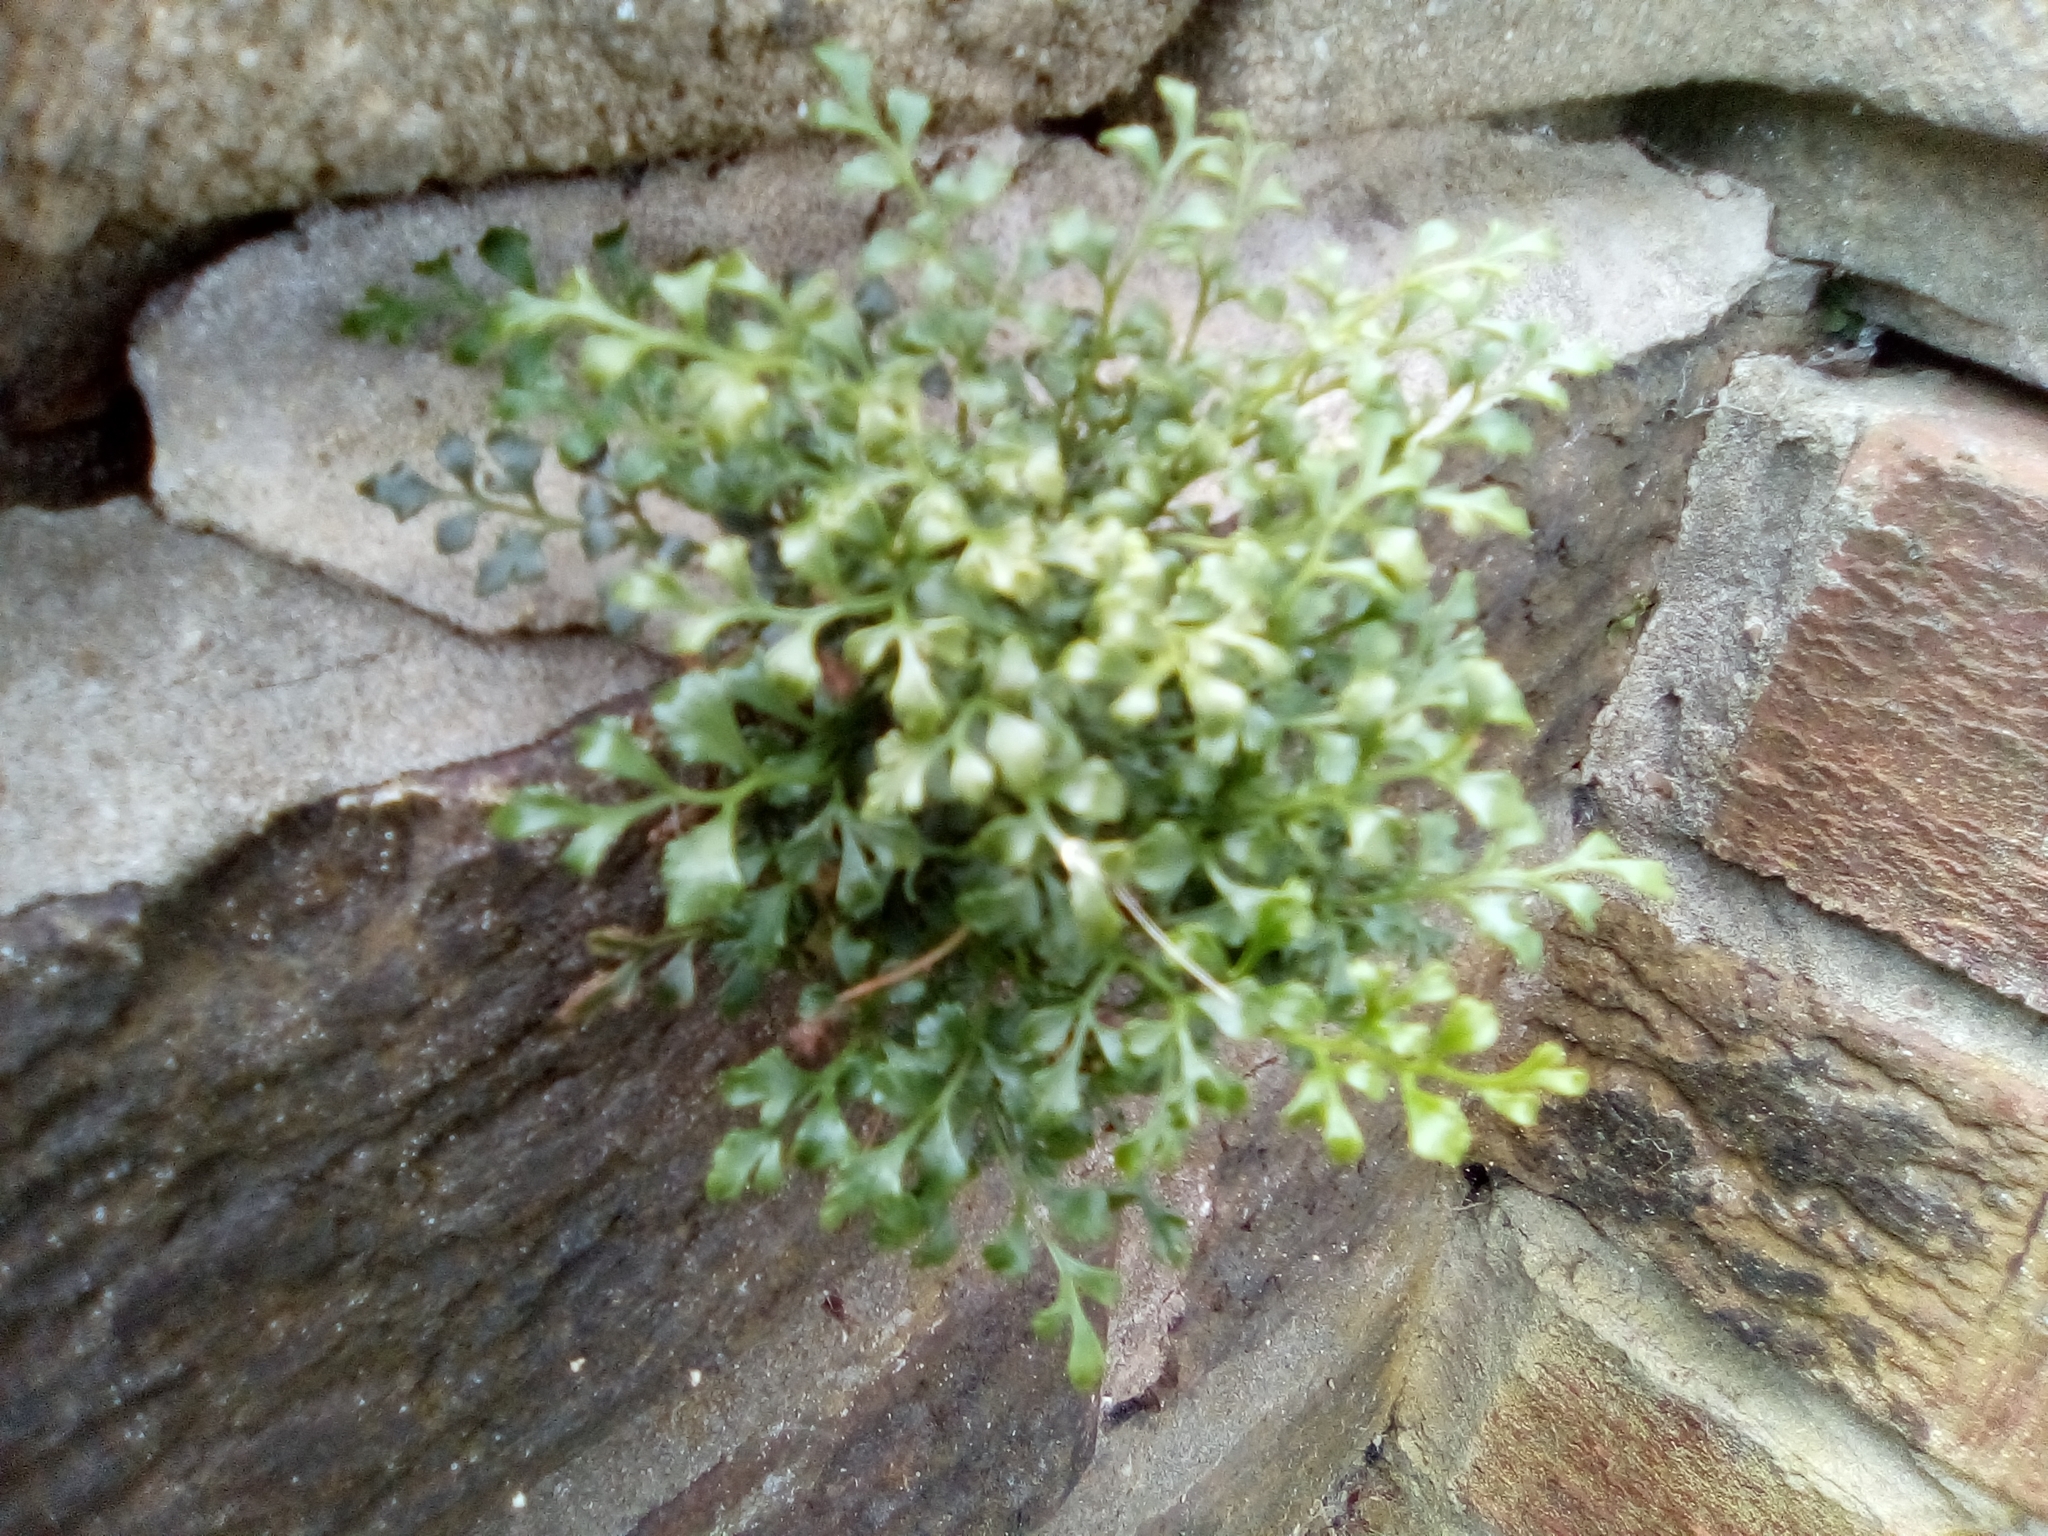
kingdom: Plantae
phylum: Tracheophyta
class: Polypodiopsida
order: Polypodiales
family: Aspleniaceae
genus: Asplenium
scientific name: Asplenium ruta-muraria
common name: Wall-rue
